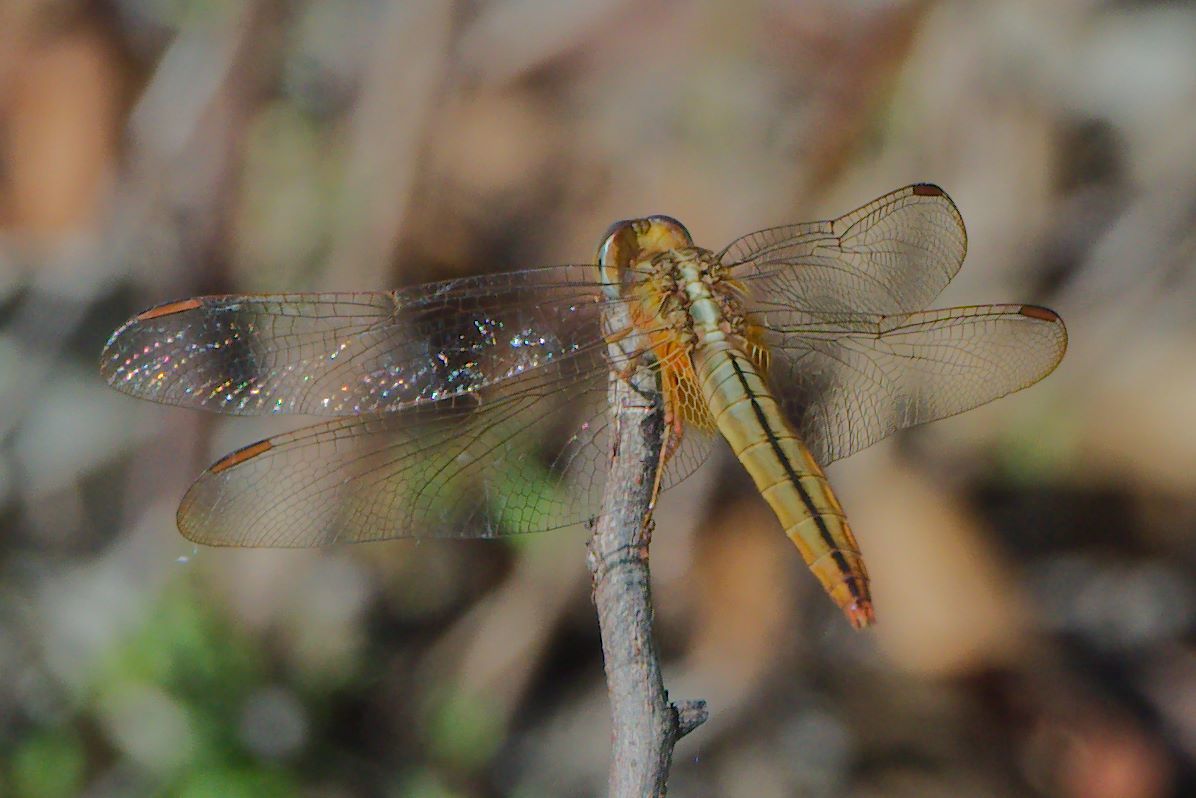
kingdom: Animalia
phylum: Arthropoda
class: Insecta
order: Odonata
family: Libellulidae
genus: Crocothemis
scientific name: Crocothemis servilia
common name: Scarlet skimmer
